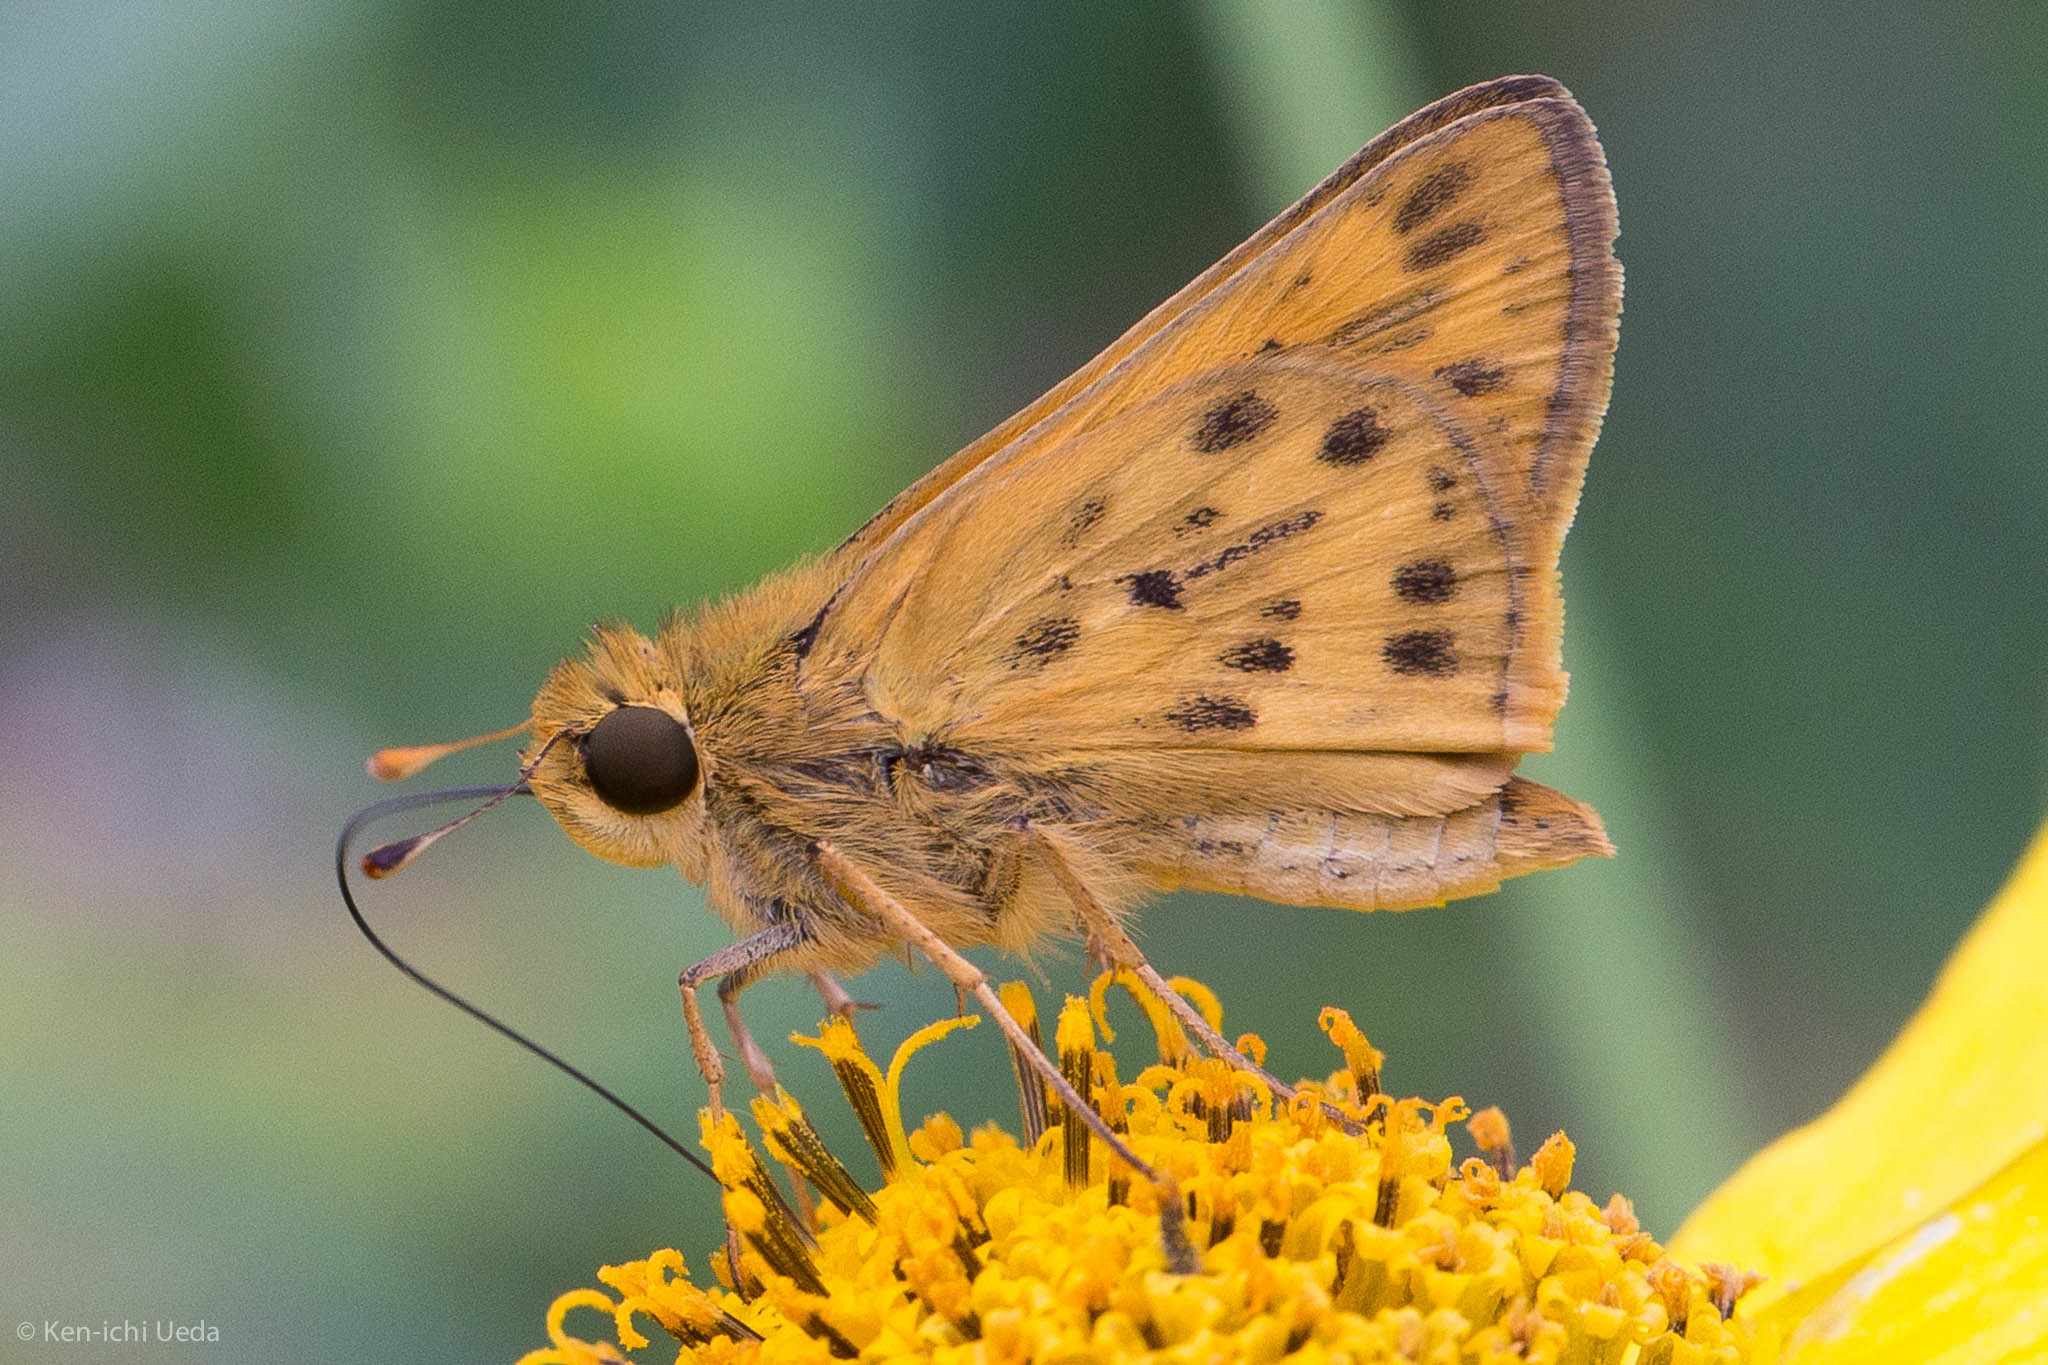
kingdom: Animalia
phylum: Arthropoda
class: Insecta
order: Lepidoptera
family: Hesperiidae
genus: Hylephila
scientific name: Hylephila phyleus
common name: Fiery skipper
